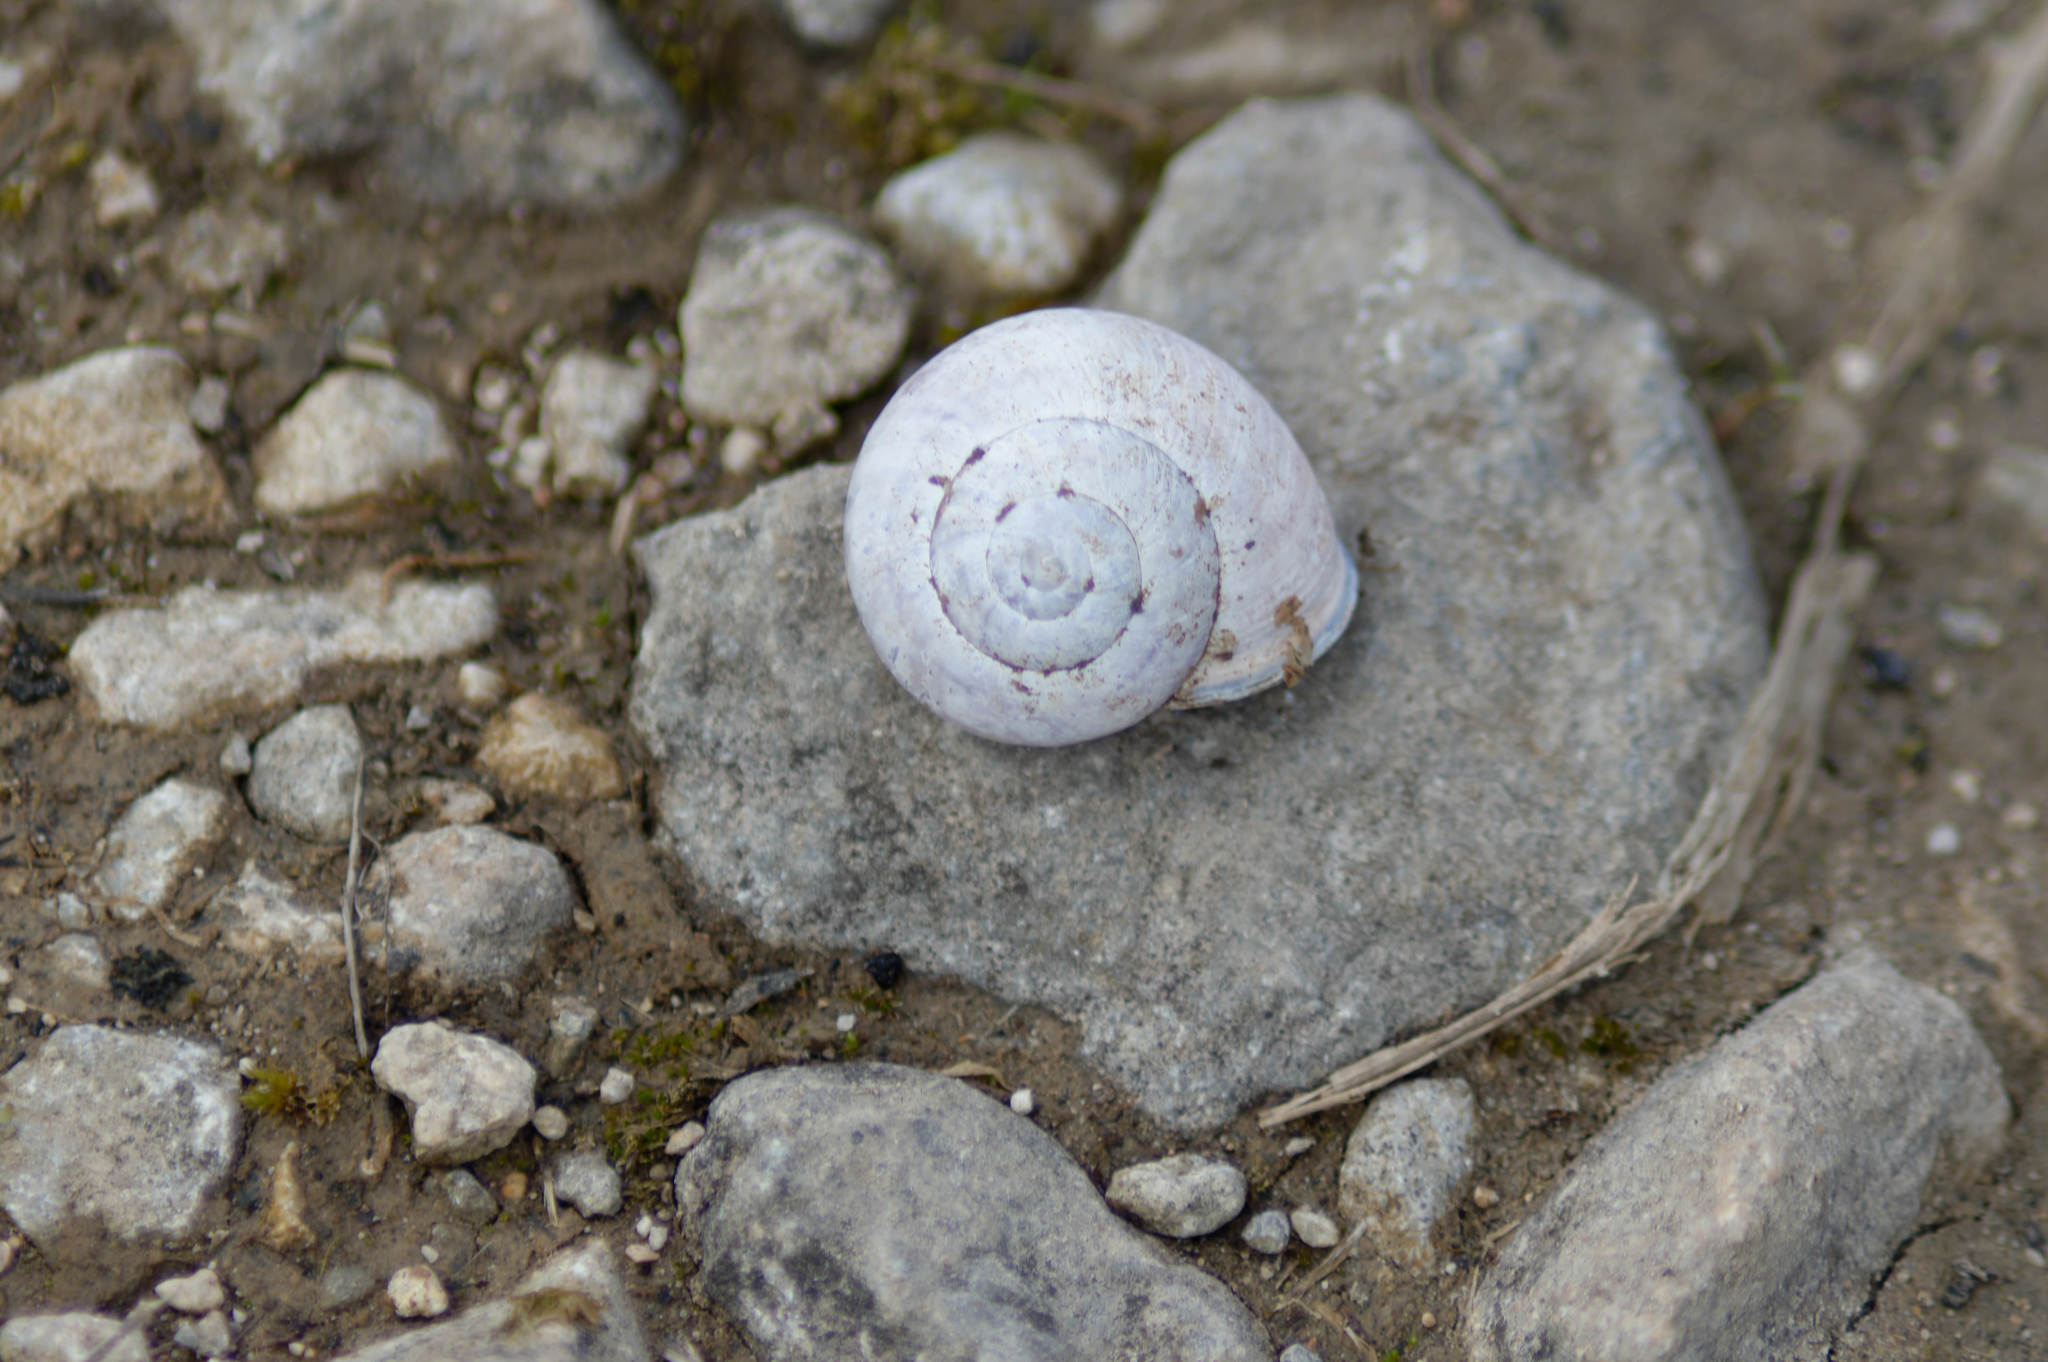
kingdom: Animalia
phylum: Mollusca
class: Gastropoda
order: Stylommatophora
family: Helicidae
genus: Cepaea
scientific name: Cepaea nemoralis
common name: Grovesnail
